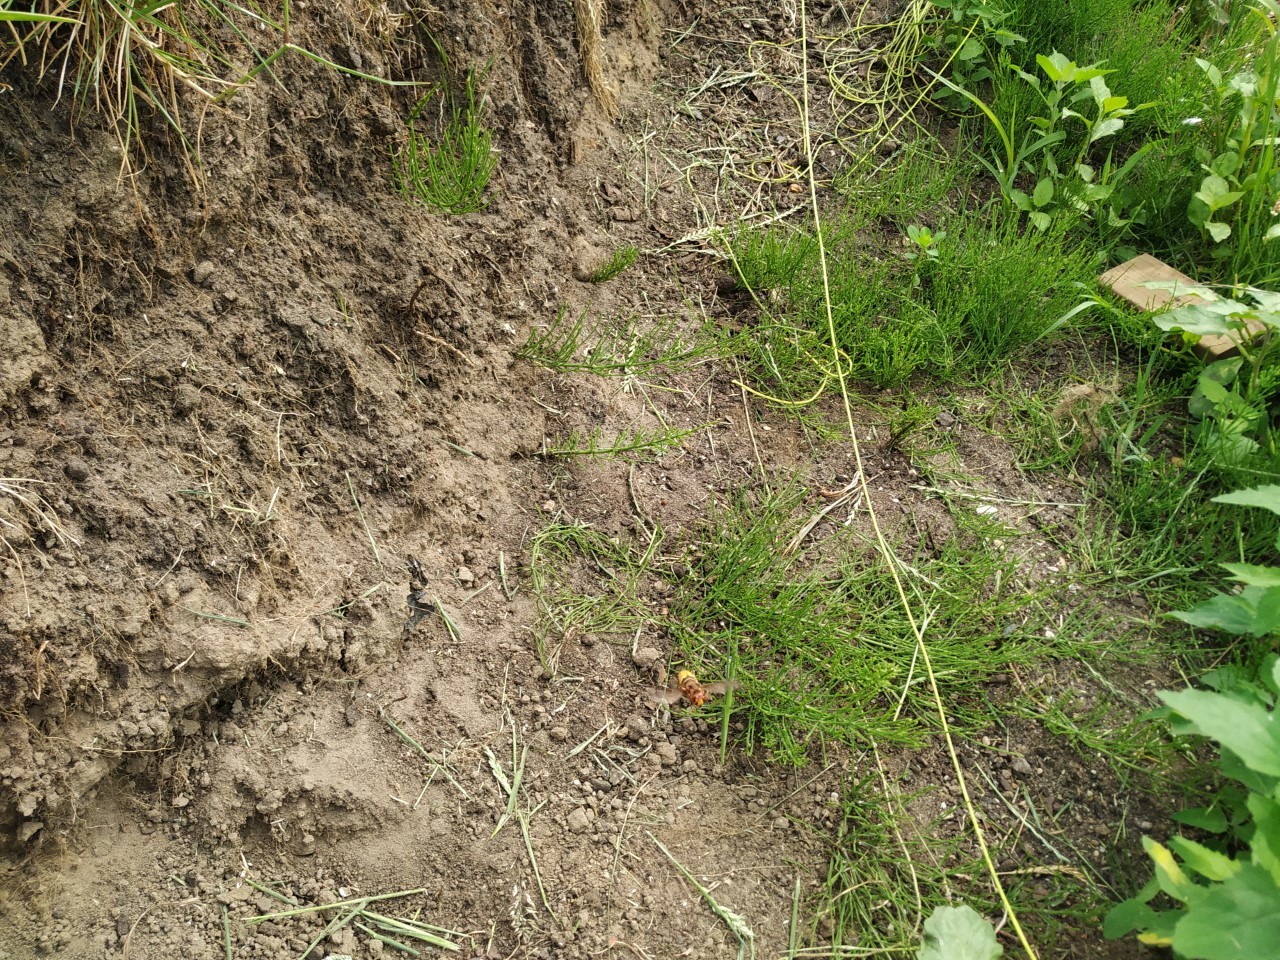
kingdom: Animalia
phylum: Arthropoda
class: Insecta
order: Hymenoptera
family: Vespidae
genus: Vespa
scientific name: Vespa crabro
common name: Hornet
